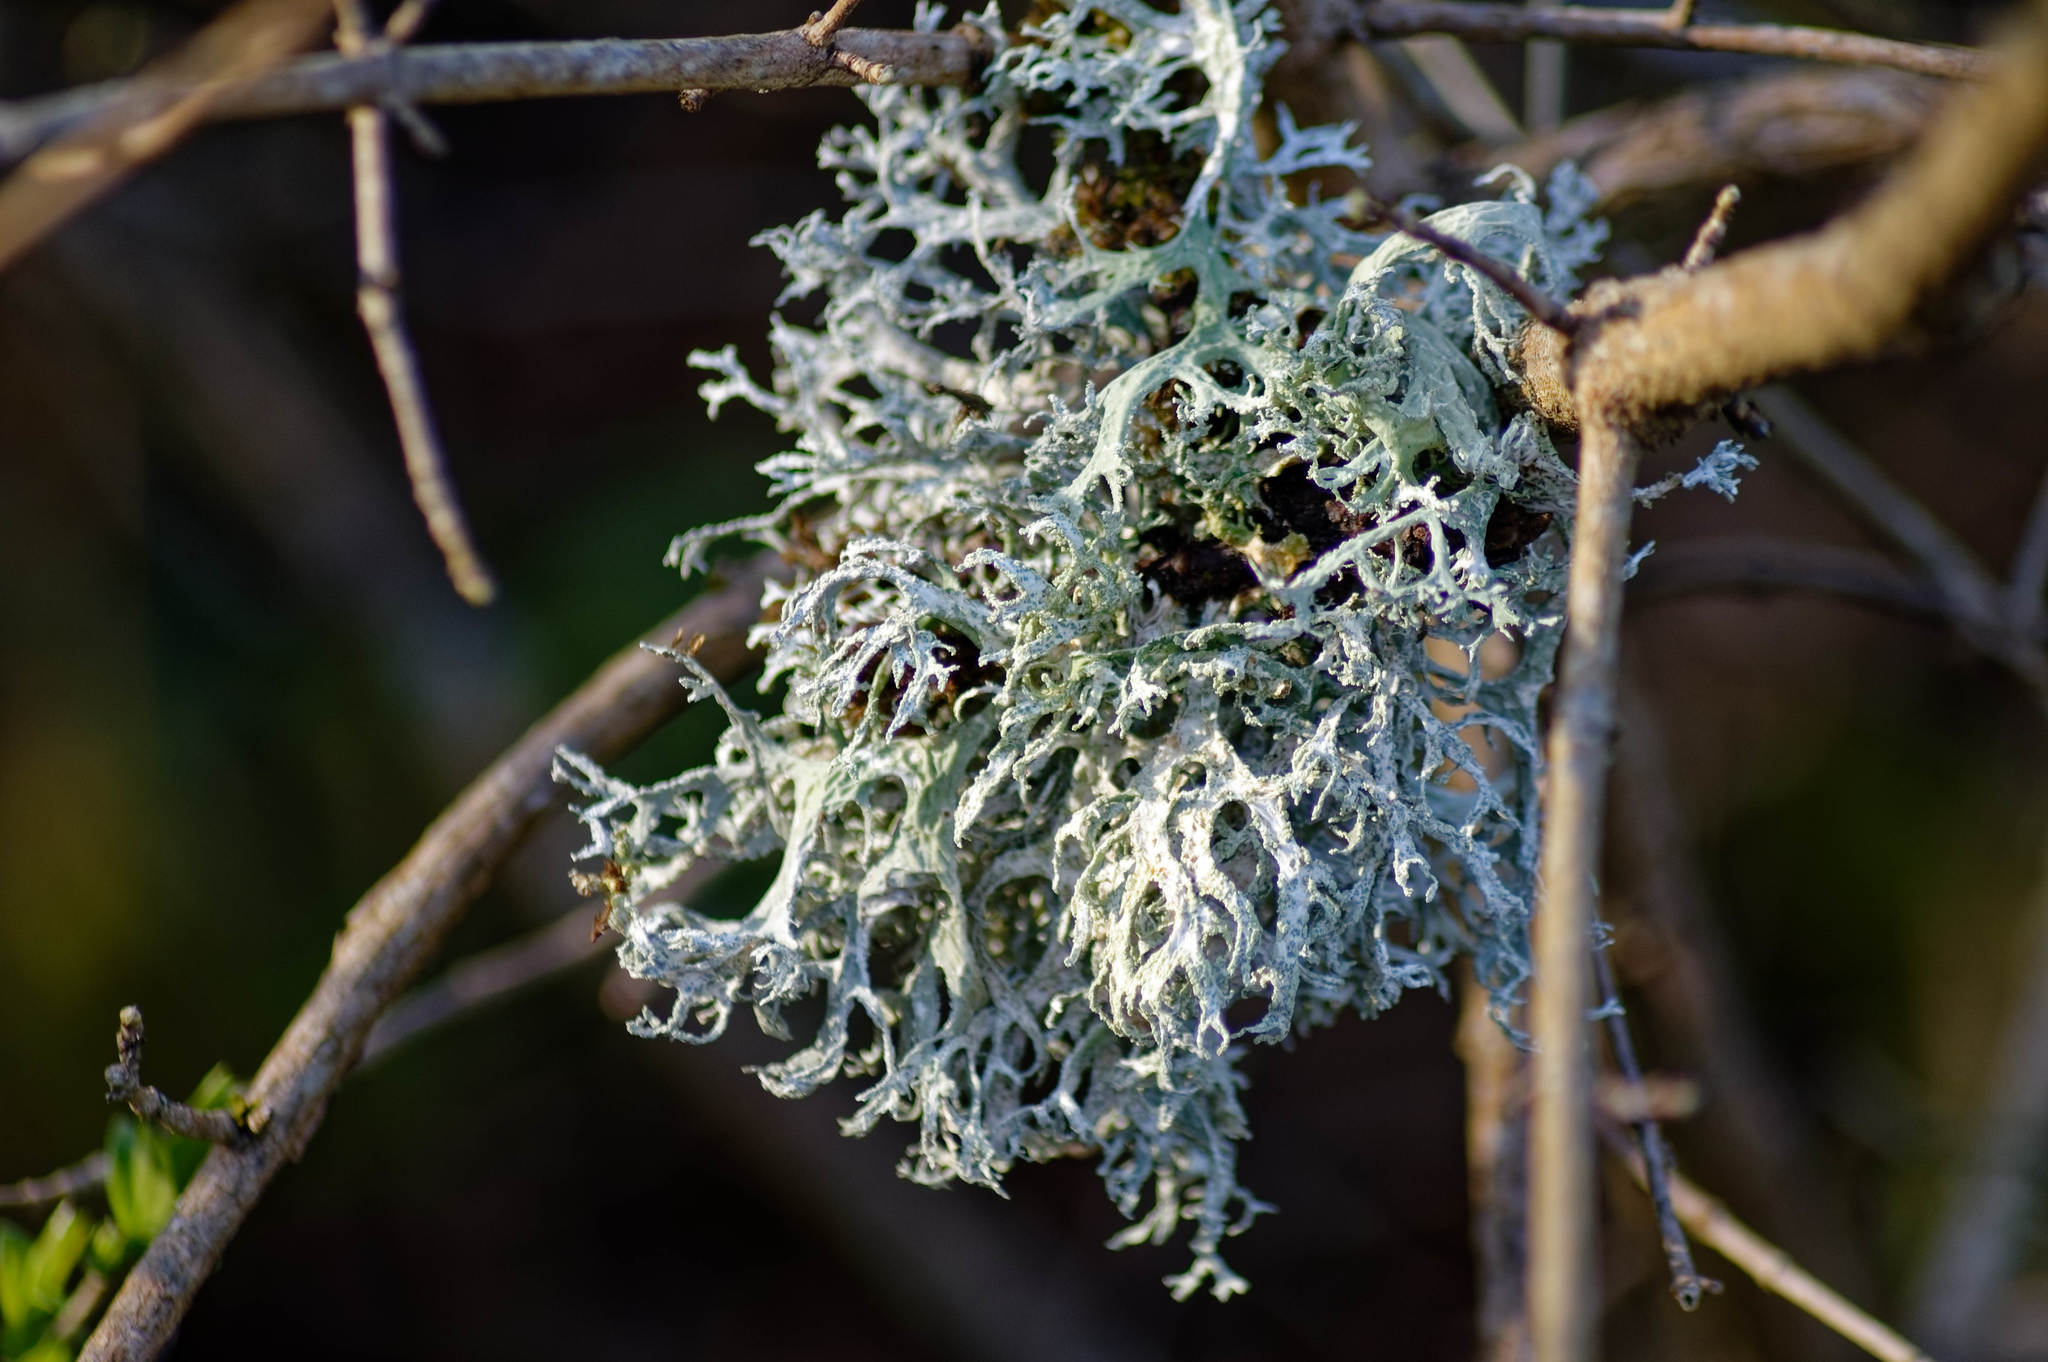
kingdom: Fungi
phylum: Ascomycota
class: Lecanoromycetes
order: Lecanorales
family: Parmeliaceae
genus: Evernia
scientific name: Evernia prunastri
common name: Oak moss
